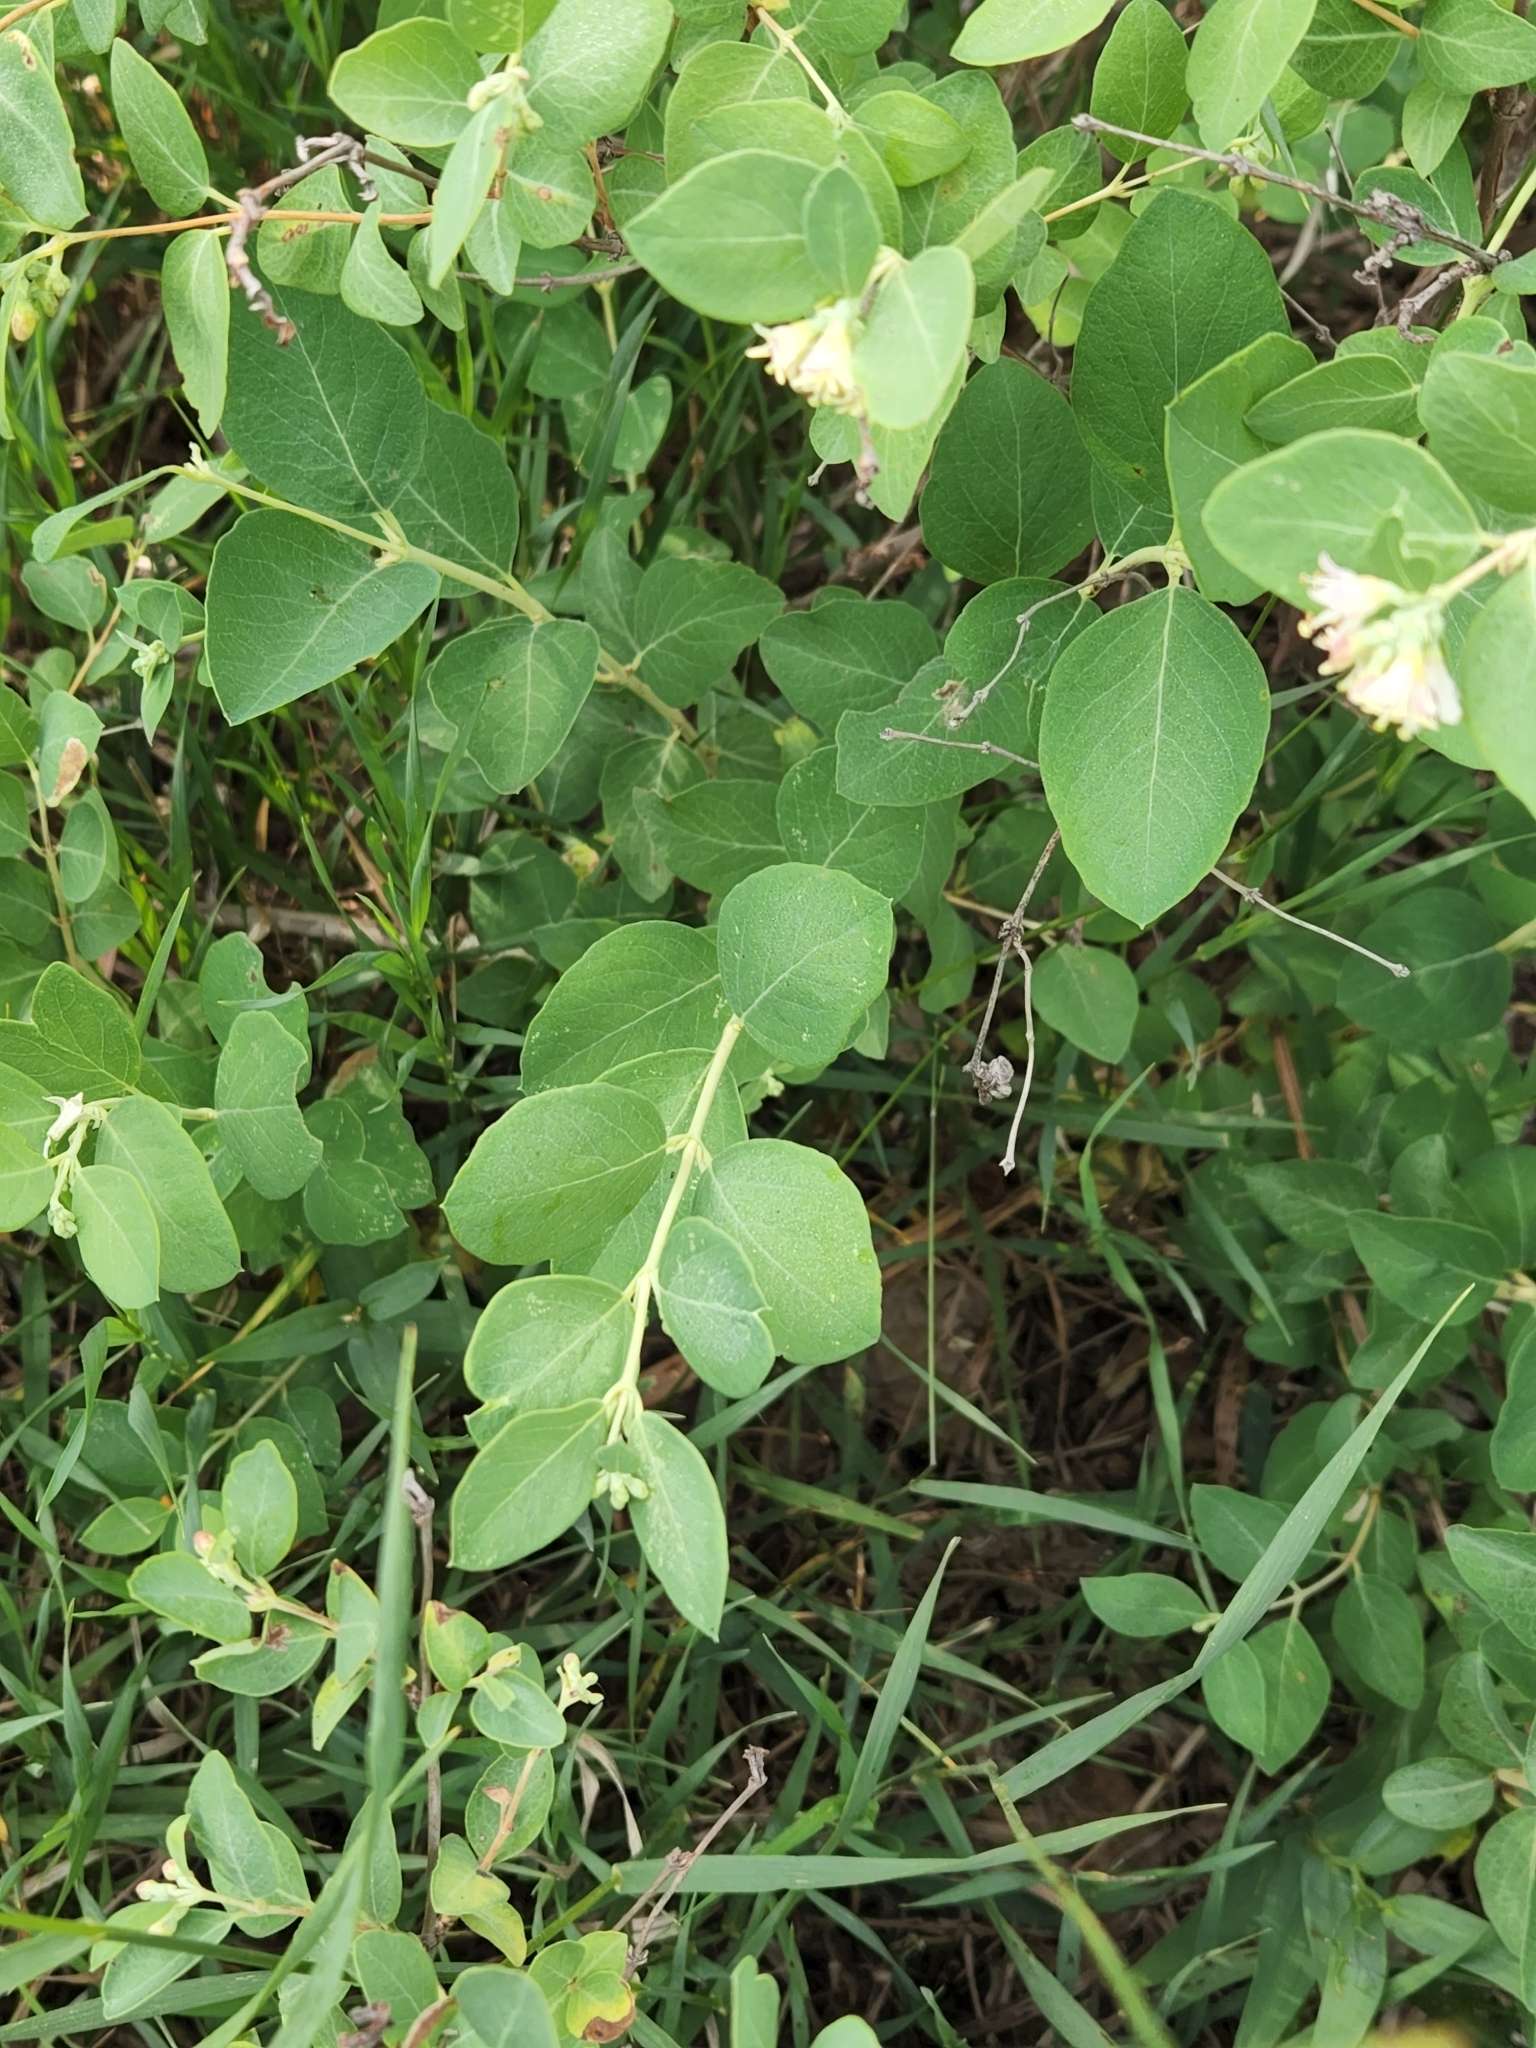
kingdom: Plantae
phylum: Tracheophyta
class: Magnoliopsida
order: Dipsacales
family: Caprifoliaceae
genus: Symphoricarpos
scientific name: Symphoricarpos occidentalis
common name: Wolfberry
